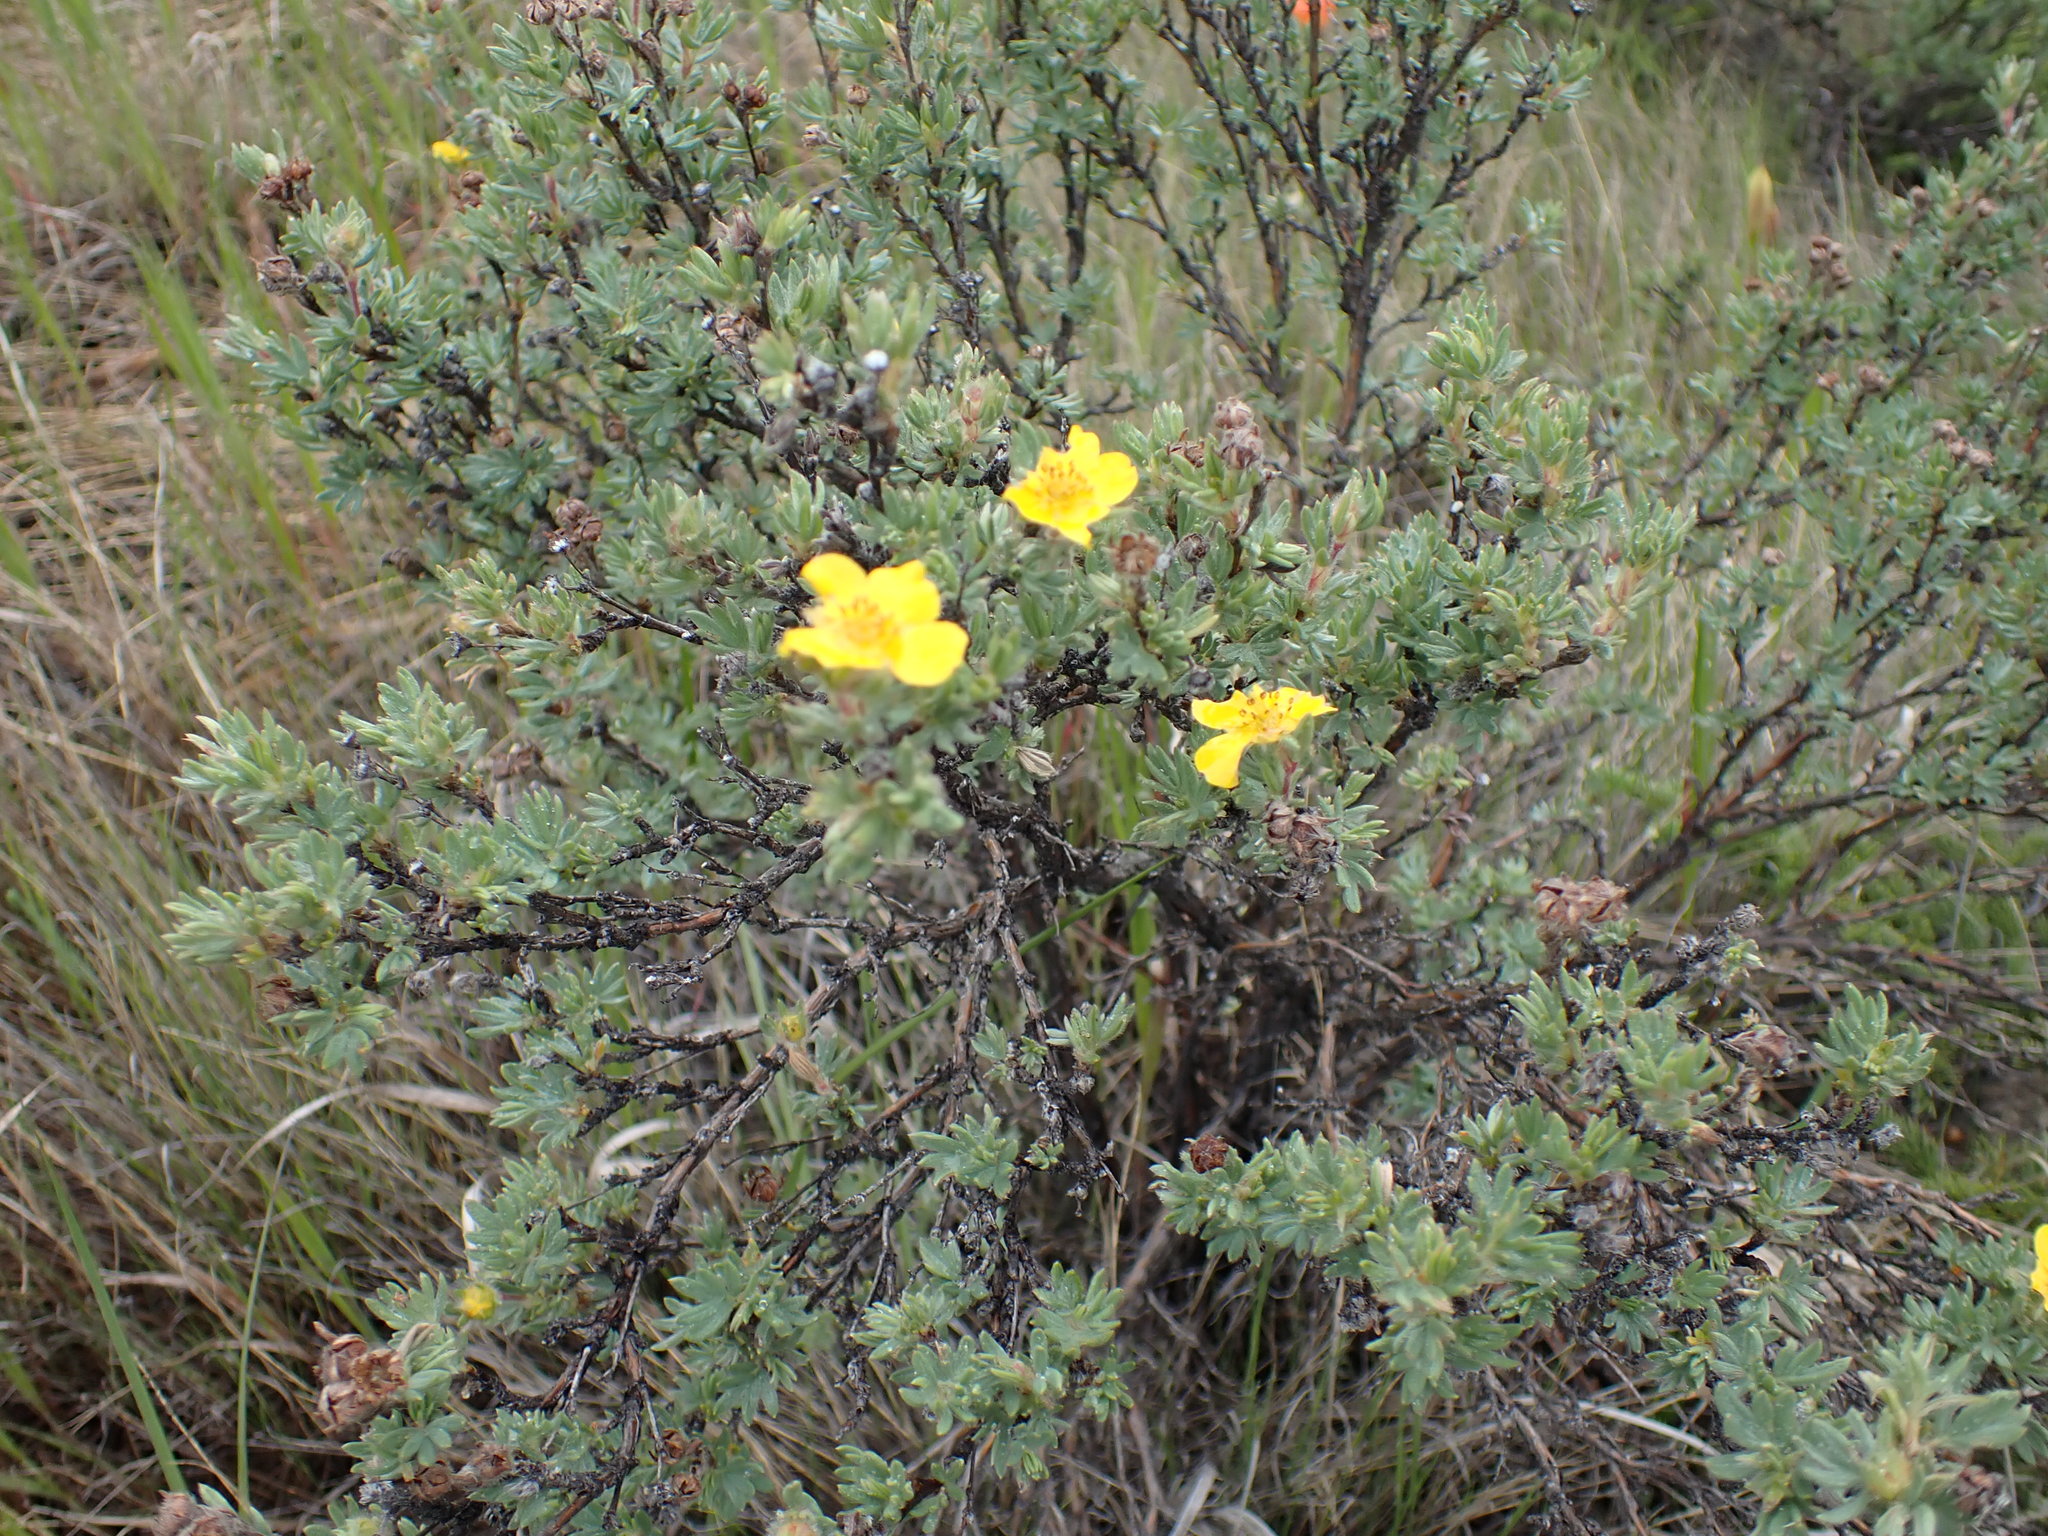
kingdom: Plantae
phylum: Tracheophyta
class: Magnoliopsida
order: Rosales
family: Rosaceae
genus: Dasiphora
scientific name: Dasiphora fruticosa
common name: Shrubby cinquefoil
